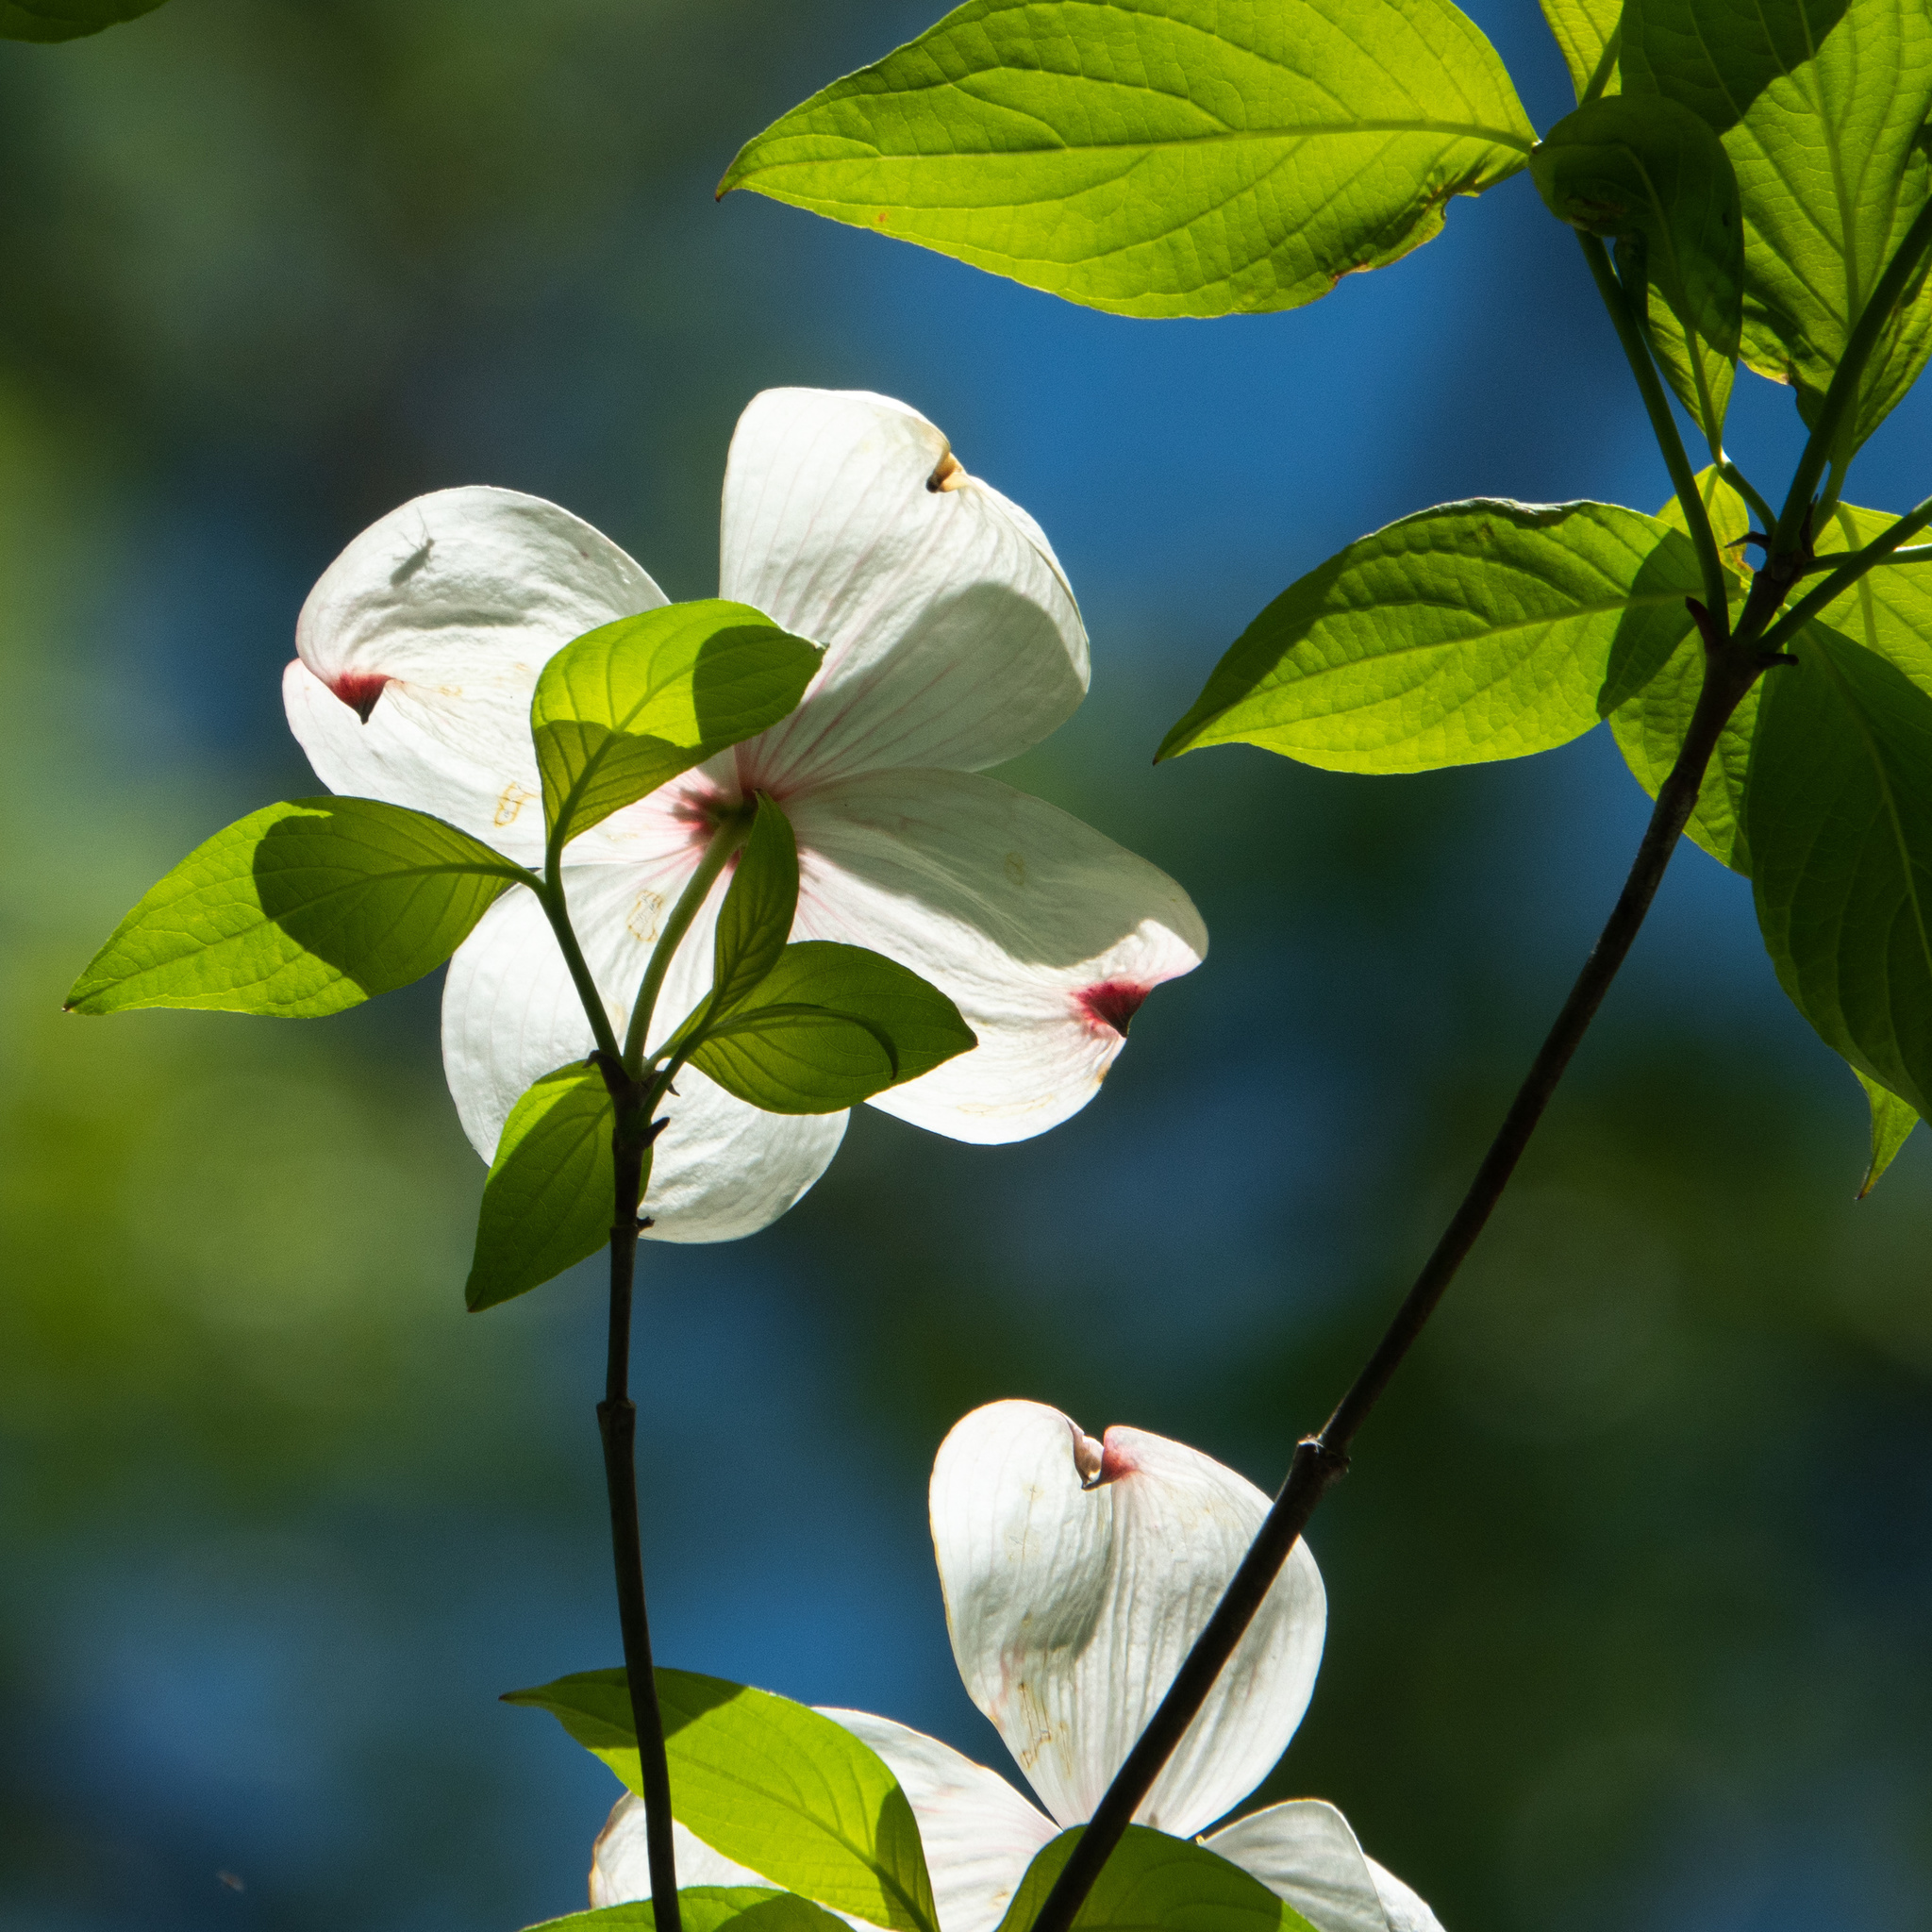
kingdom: Plantae
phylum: Tracheophyta
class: Magnoliopsida
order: Cornales
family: Cornaceae
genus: Cornus
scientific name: Cornus florida
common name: Flowering dogwood
